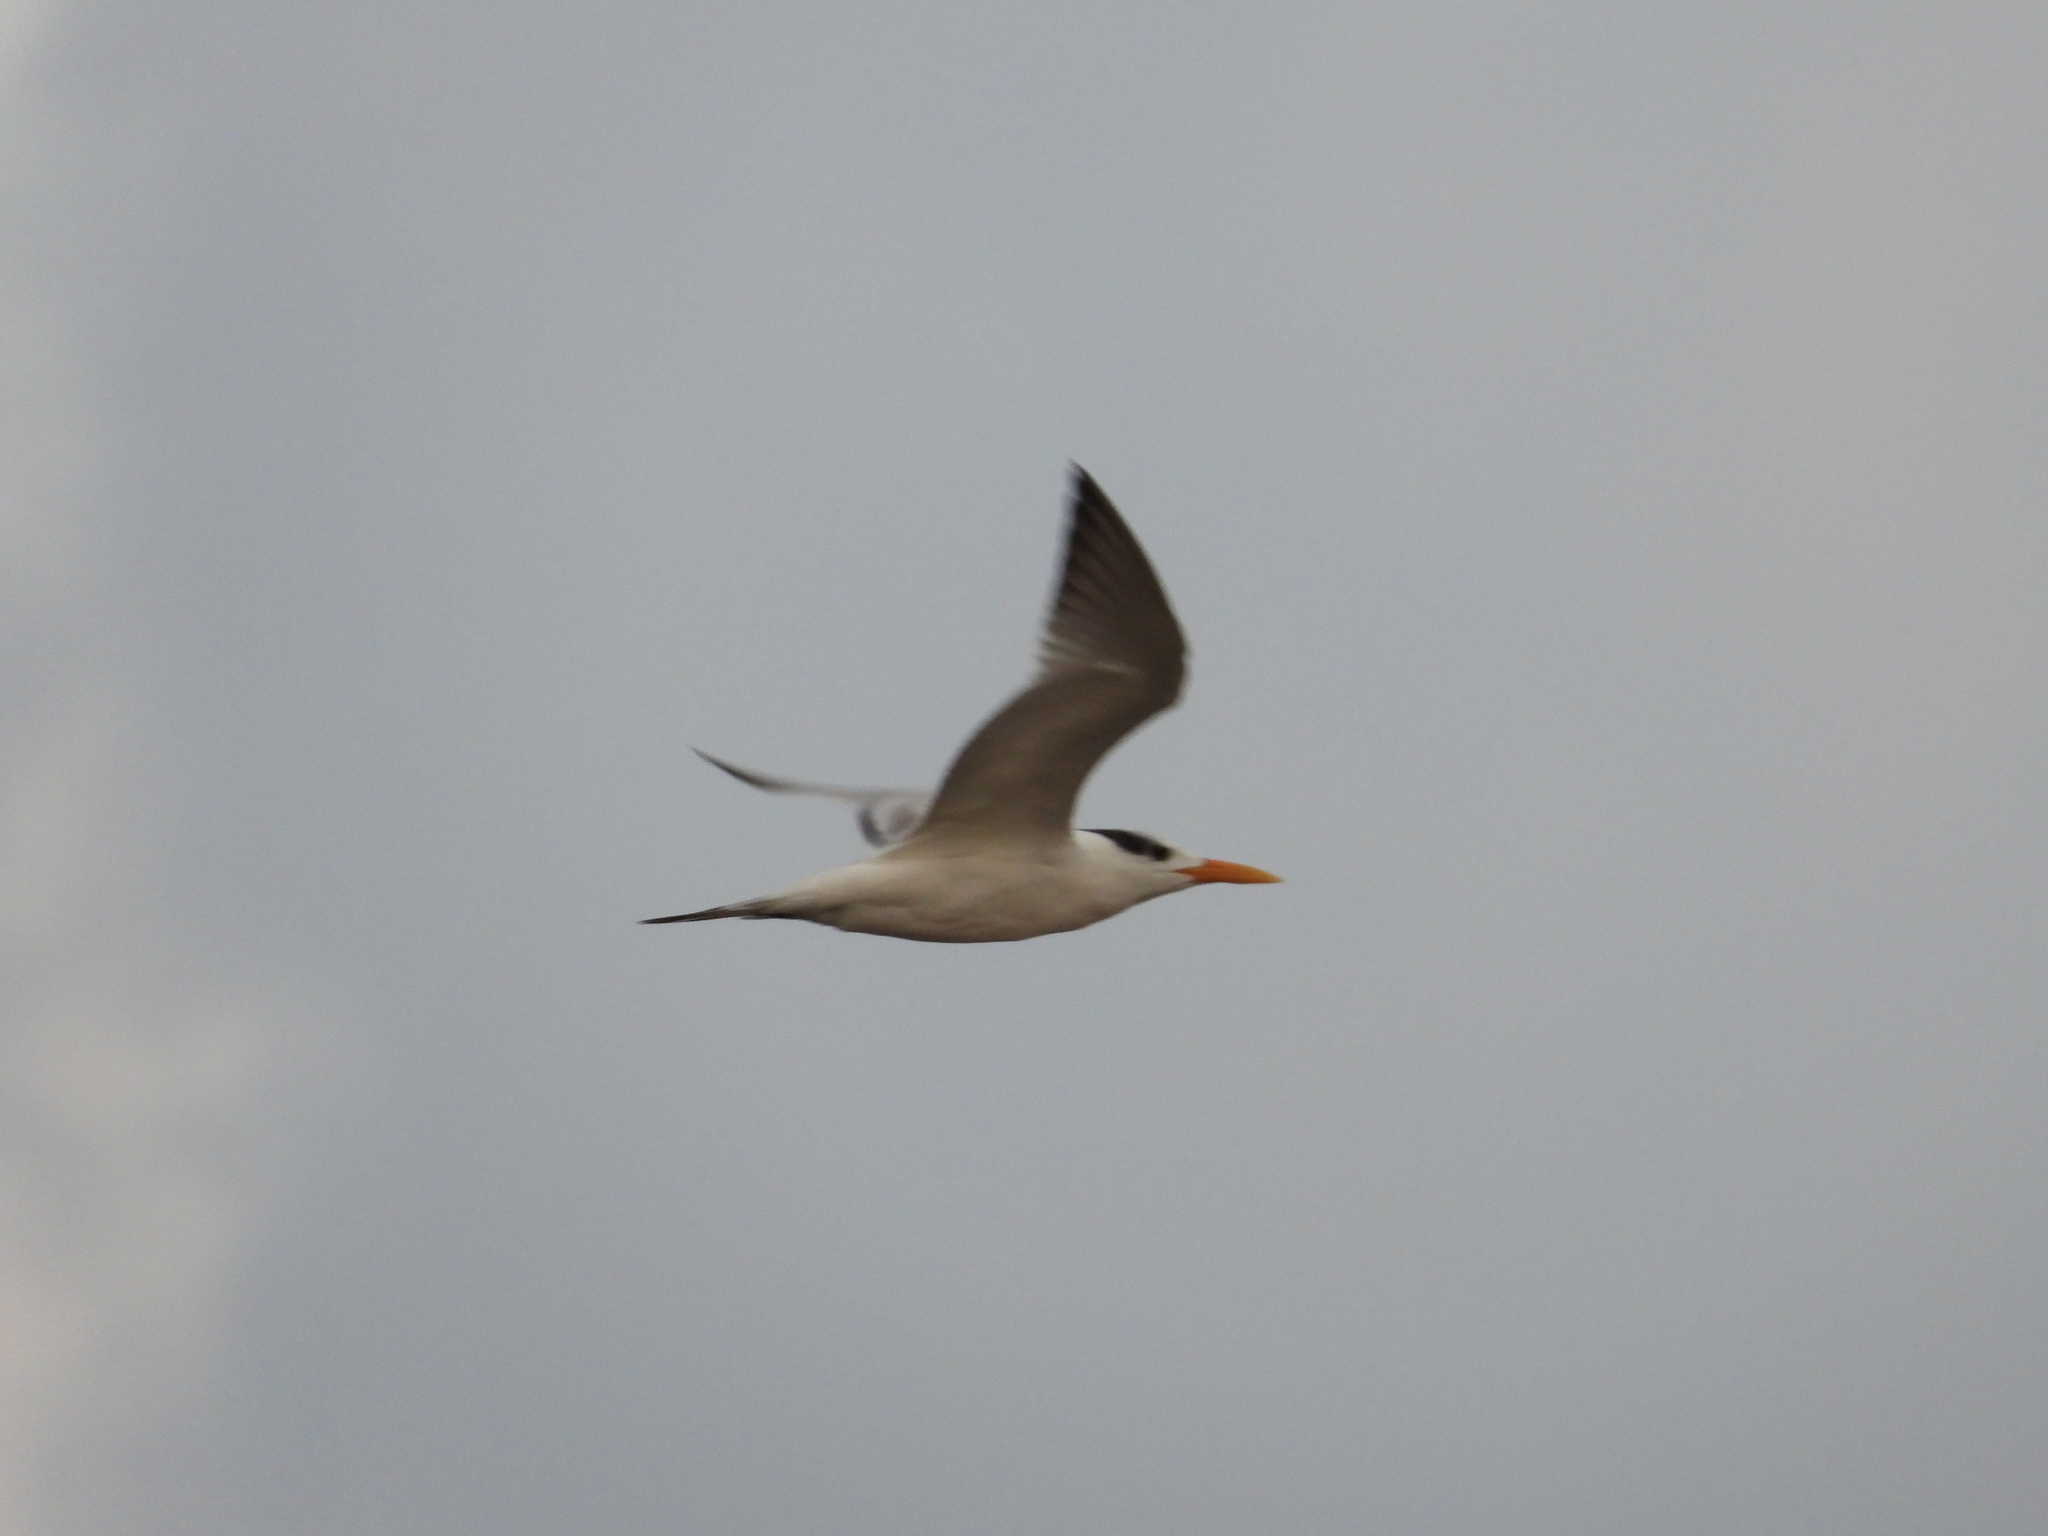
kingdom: Animalia
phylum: Chordata
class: Aves
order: Charadriiformes
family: Laridae
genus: Thalasseus
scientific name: Thalasseus maximus
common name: Royal tern
